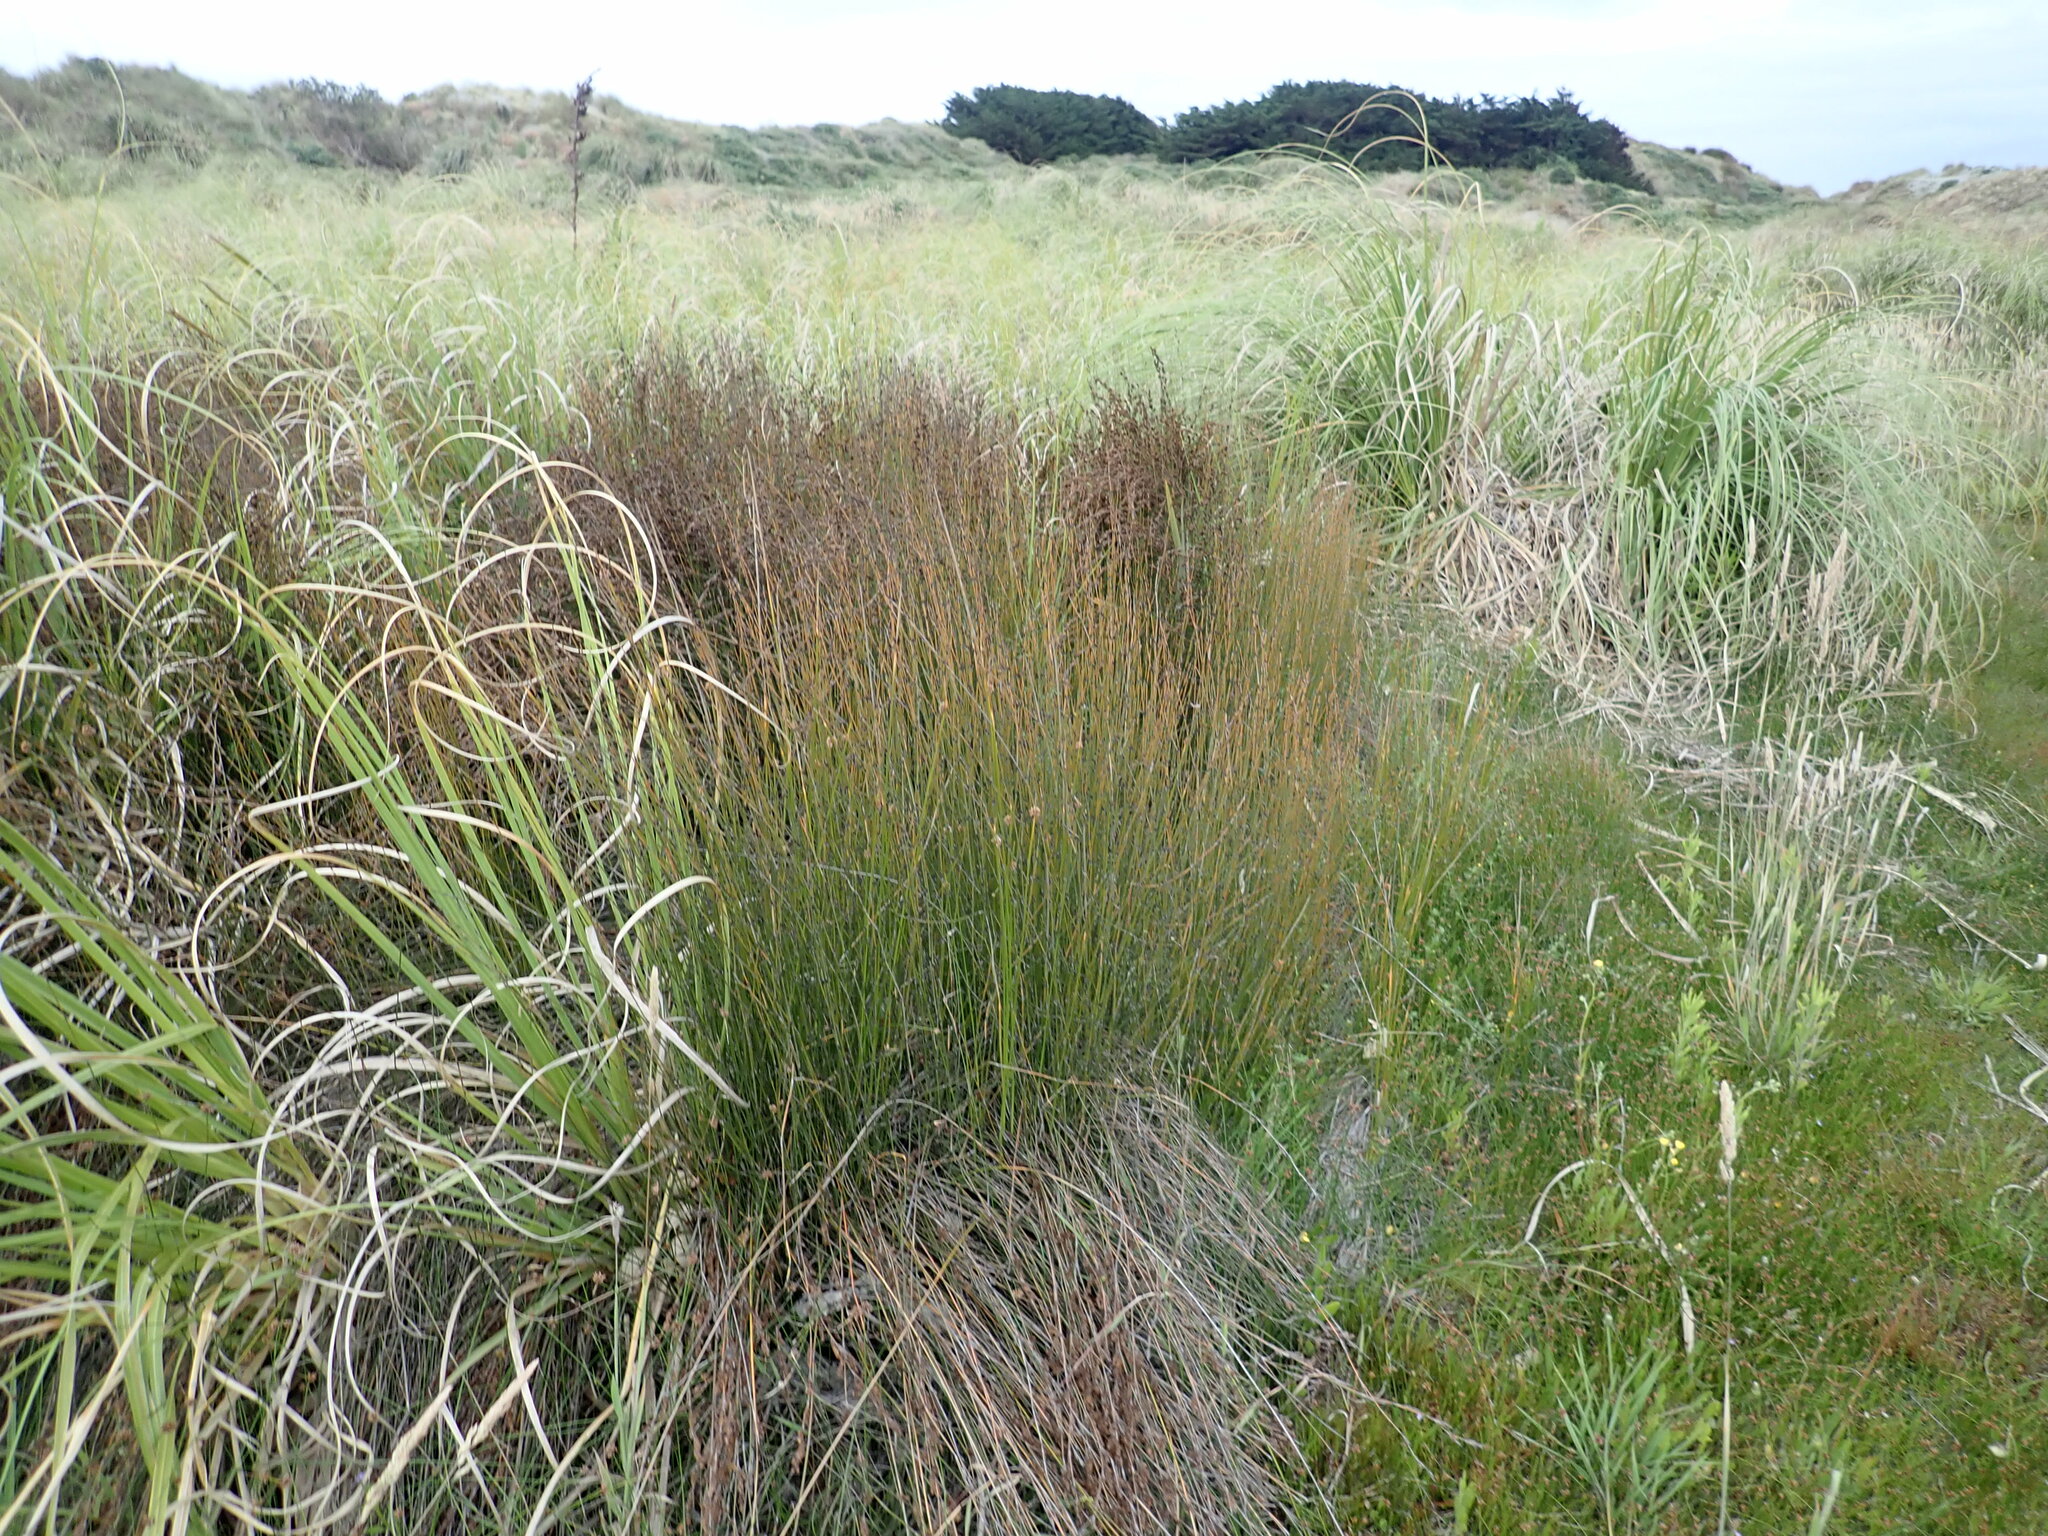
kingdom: Plantae
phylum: Tracheophyta
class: Liliopsida
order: Poales
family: Restionaceae
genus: Apodasmia
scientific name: Apodasmia similis
